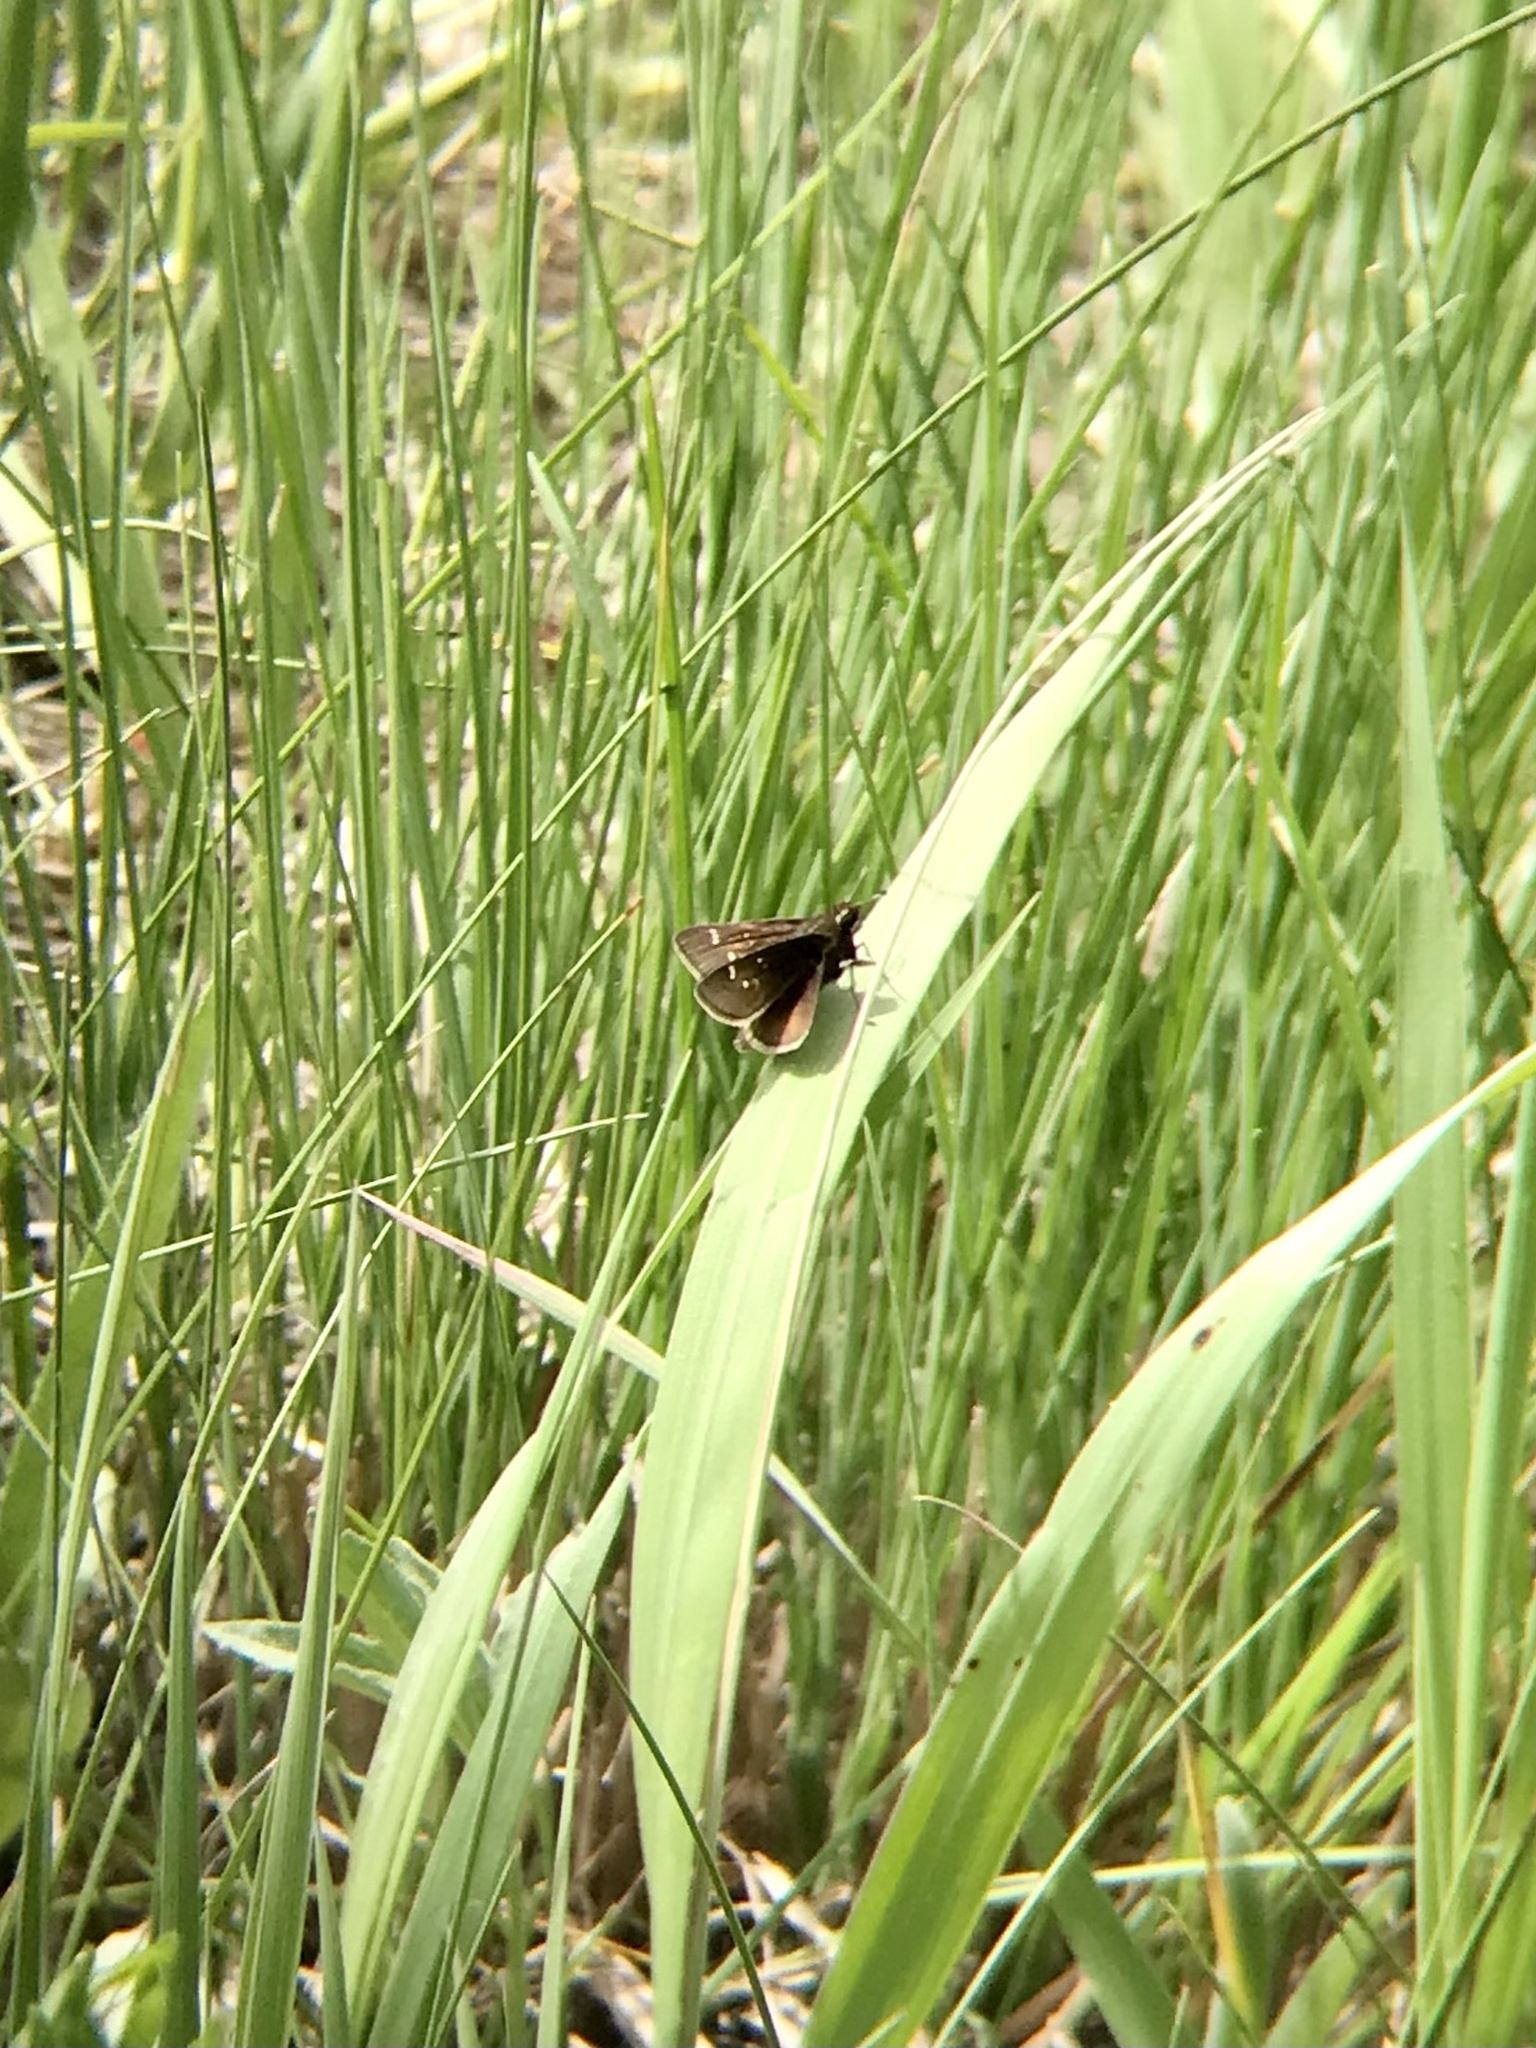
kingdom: Animalia
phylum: Arthropoda
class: Insecta
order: Lepidoptera
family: Hesperiidae
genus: Atrytonopsis
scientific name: Atrytonopsis hianna
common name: Dusted skipper
